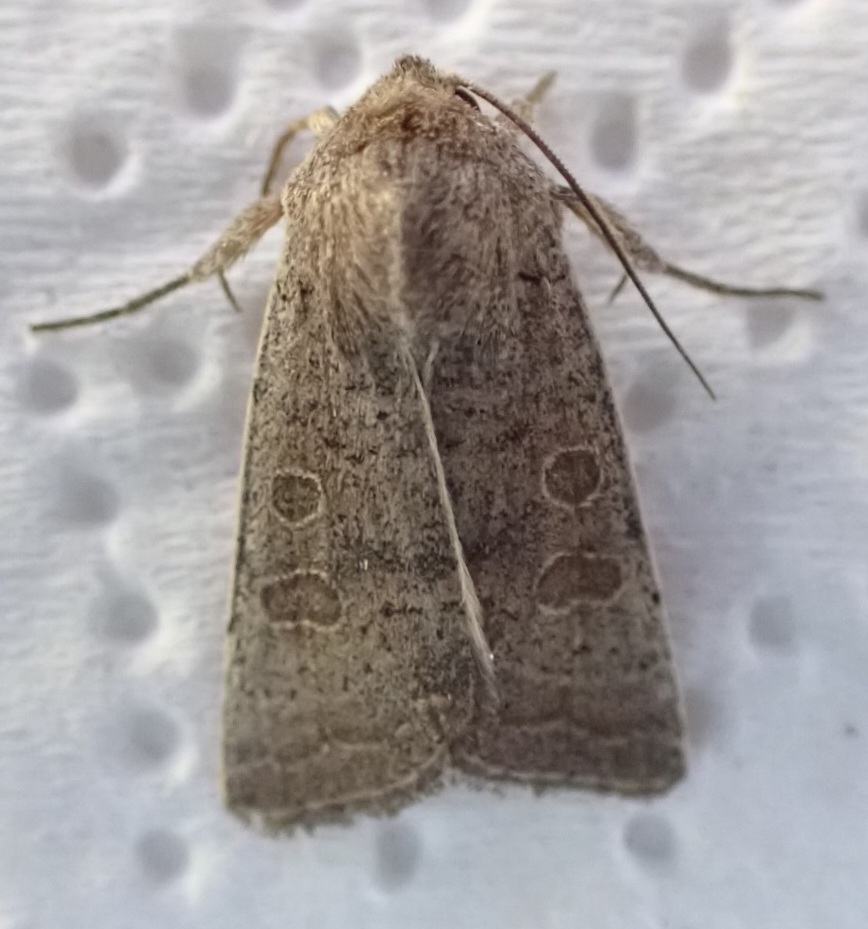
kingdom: Animalia
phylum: Arthropoda
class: Insecta
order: Lepidoptera
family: Noctuidae
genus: Hoplodrina
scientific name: Hoplodrina ambigua
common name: Vine's rustic
